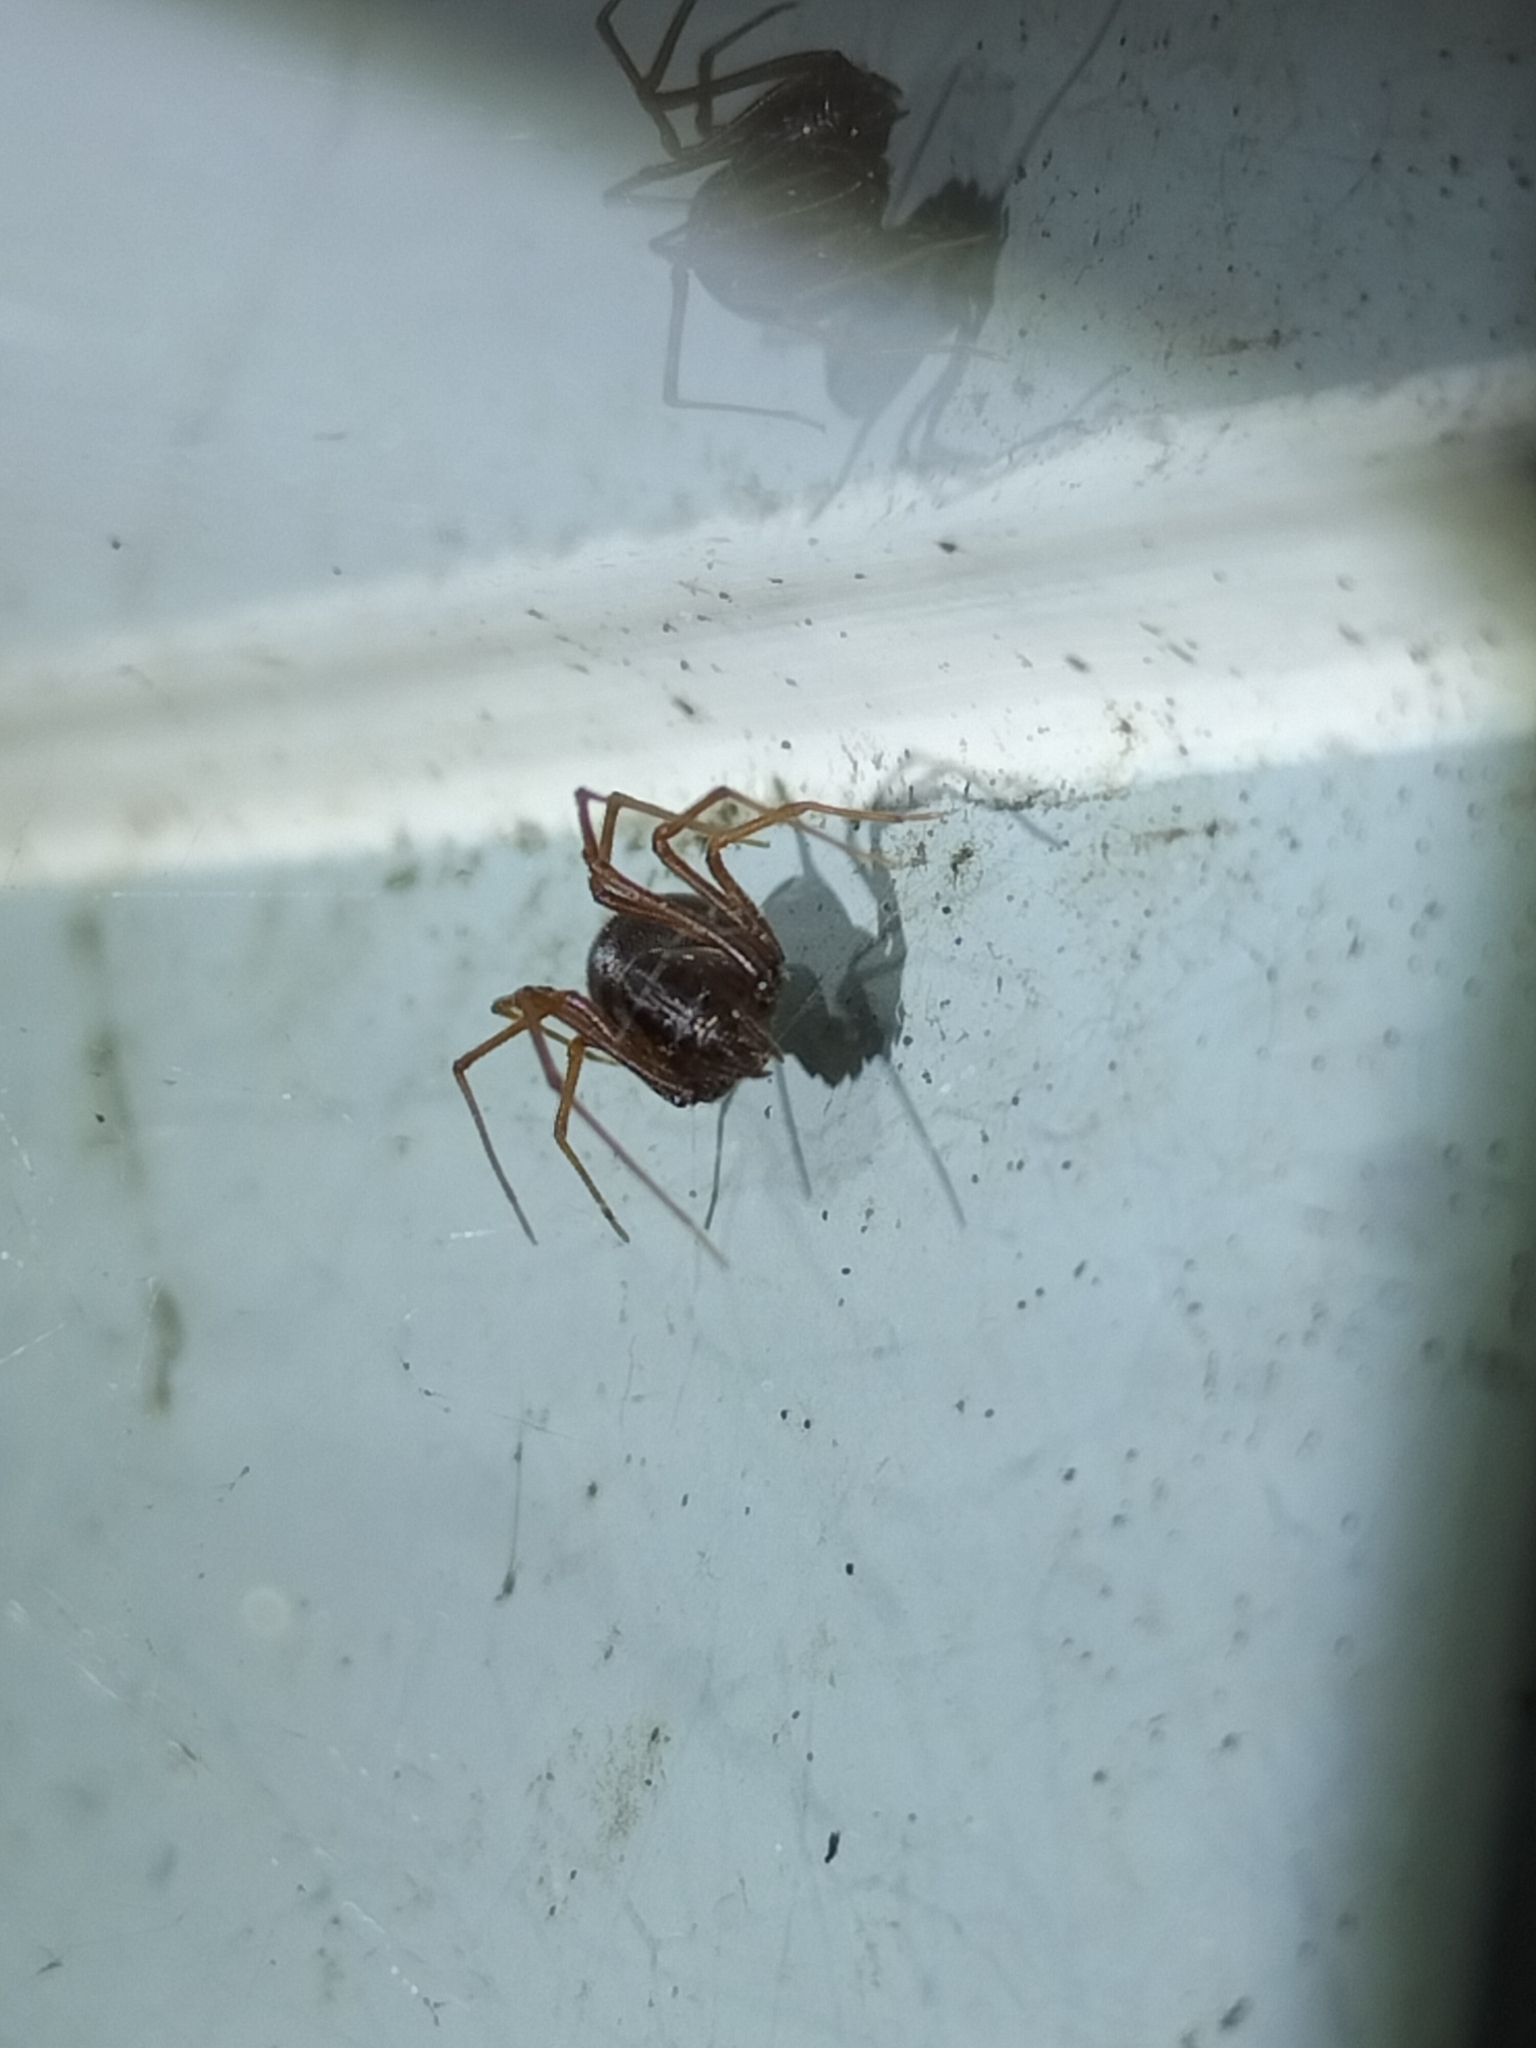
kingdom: Animalia
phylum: Arthropoda
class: Arachnida
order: Araneae
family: Scytodidae
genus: Dictis
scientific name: Dictis striatipes
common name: Spider
